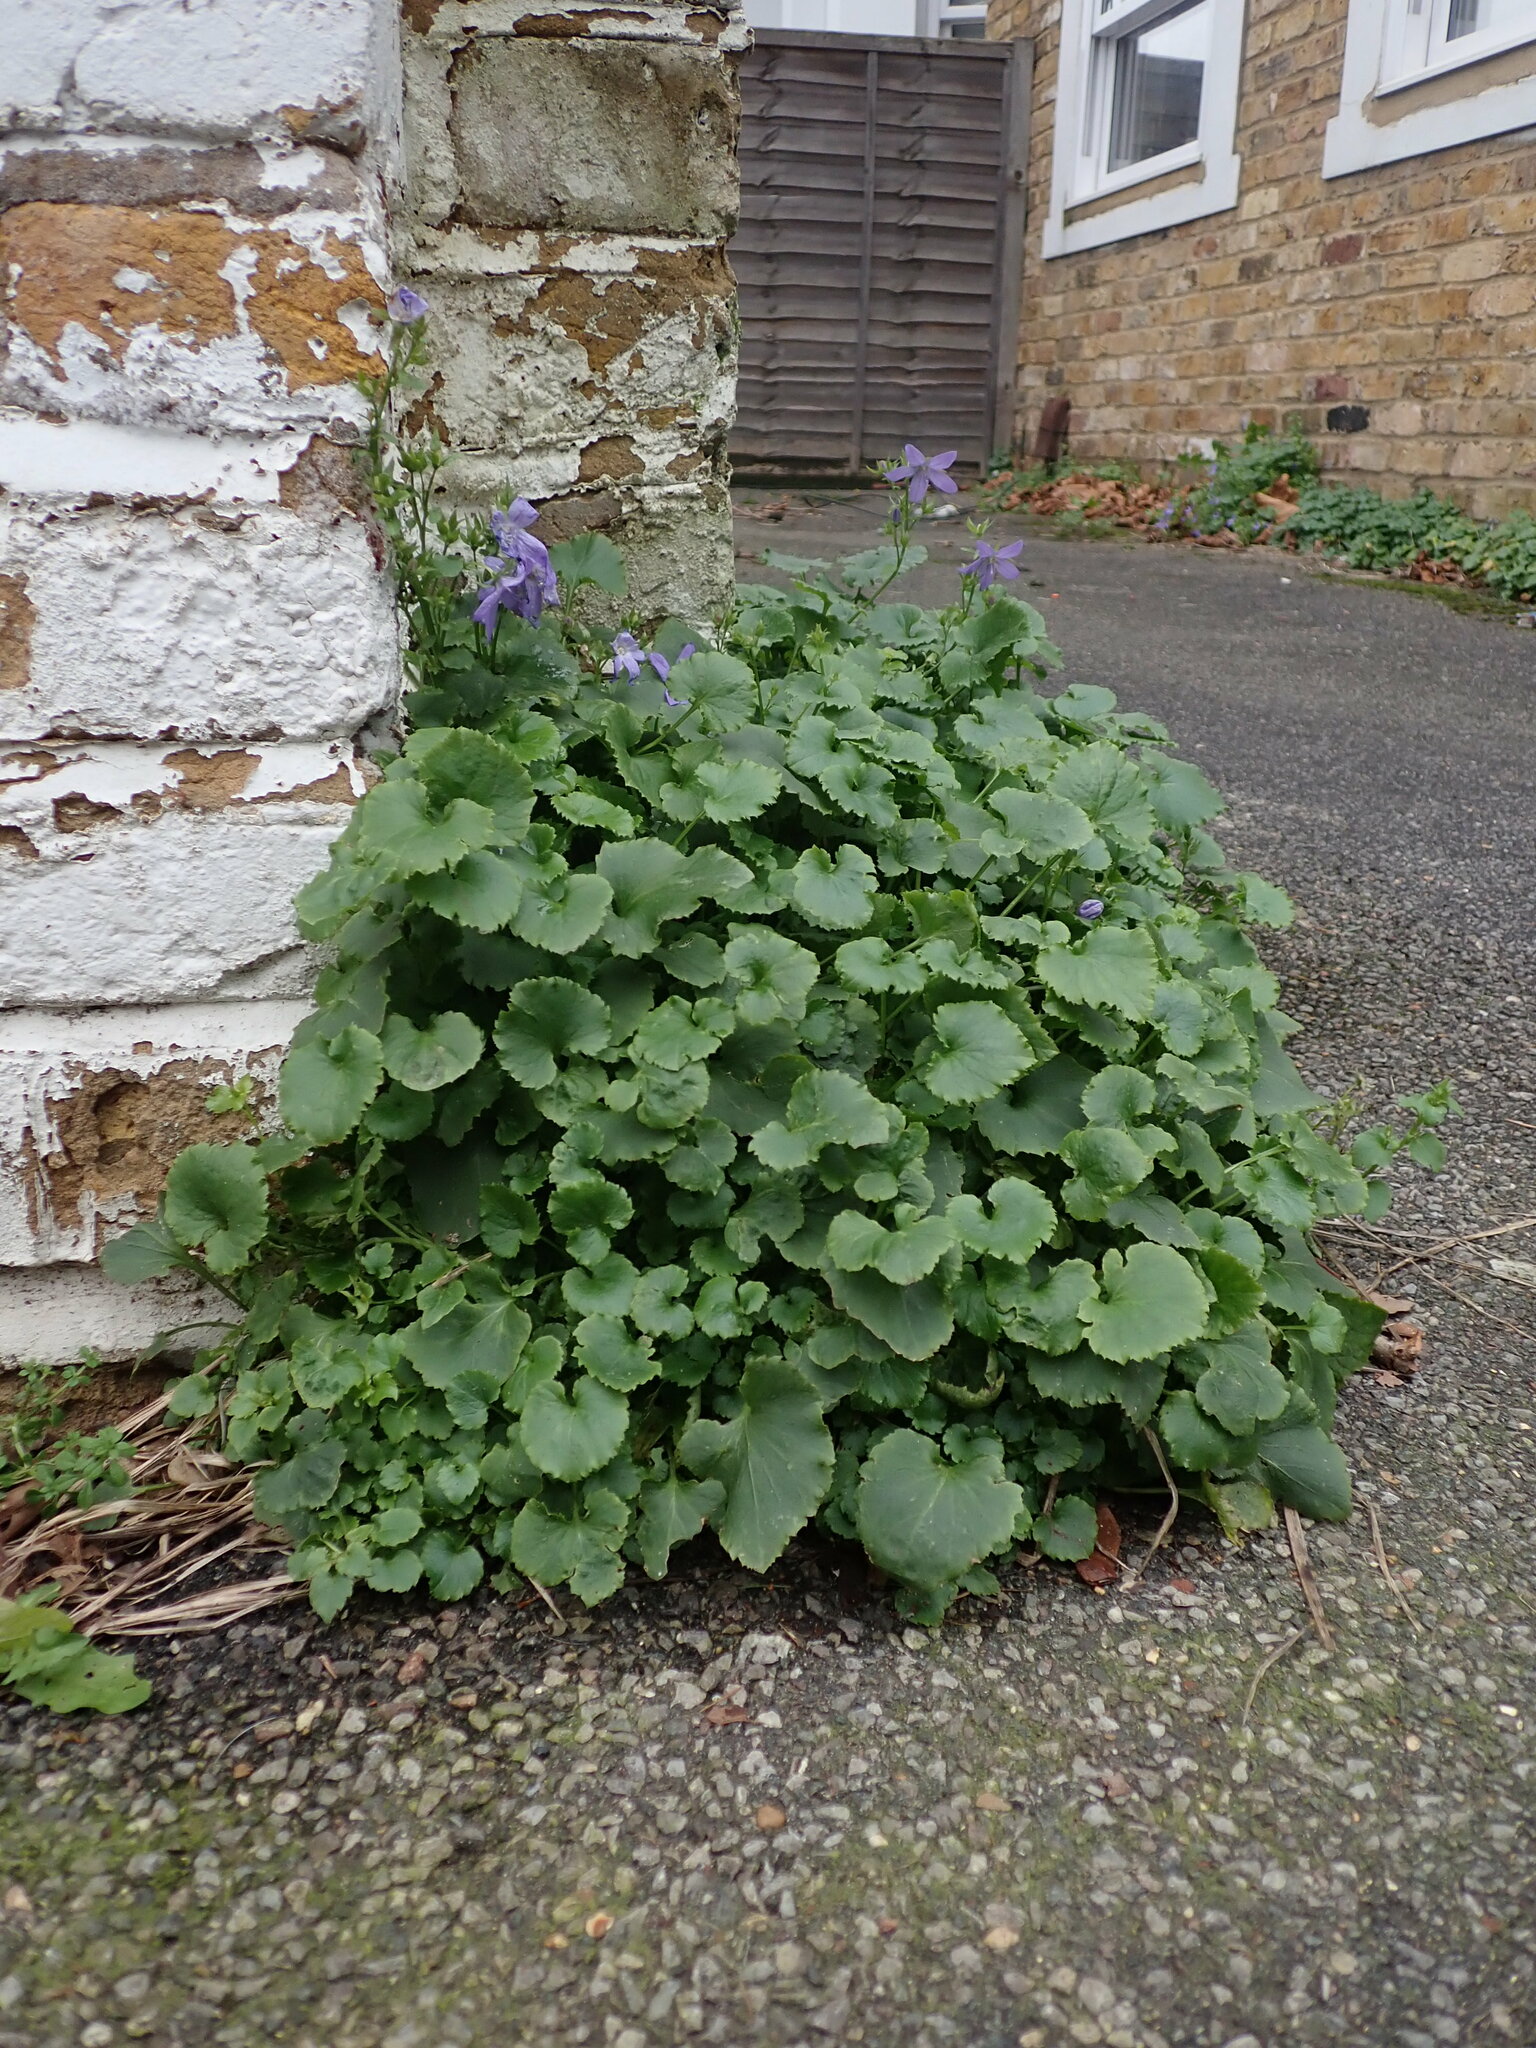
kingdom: Plantae
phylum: Tracheophyta
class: Magnoliopsida
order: Asterales
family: Campanulaceae
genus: Campanula
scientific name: Campanula poscharskyana
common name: Trailing bellflower
